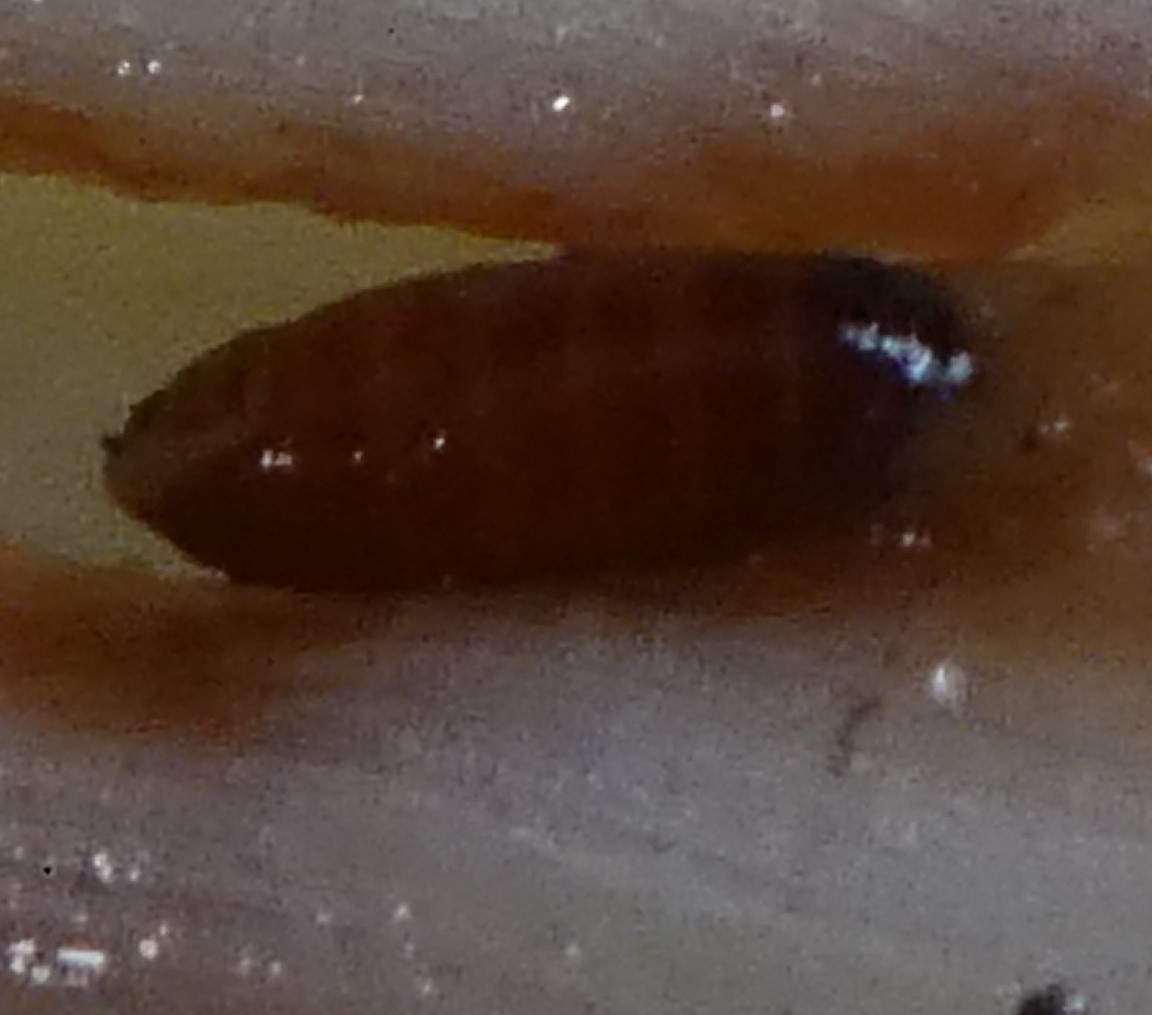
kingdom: Animalia
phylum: Arthropoda
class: Insecta
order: Diptera
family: Agromyzidae
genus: Phytomyza
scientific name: Phytomyza gymnostoma
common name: Allium leafminer
